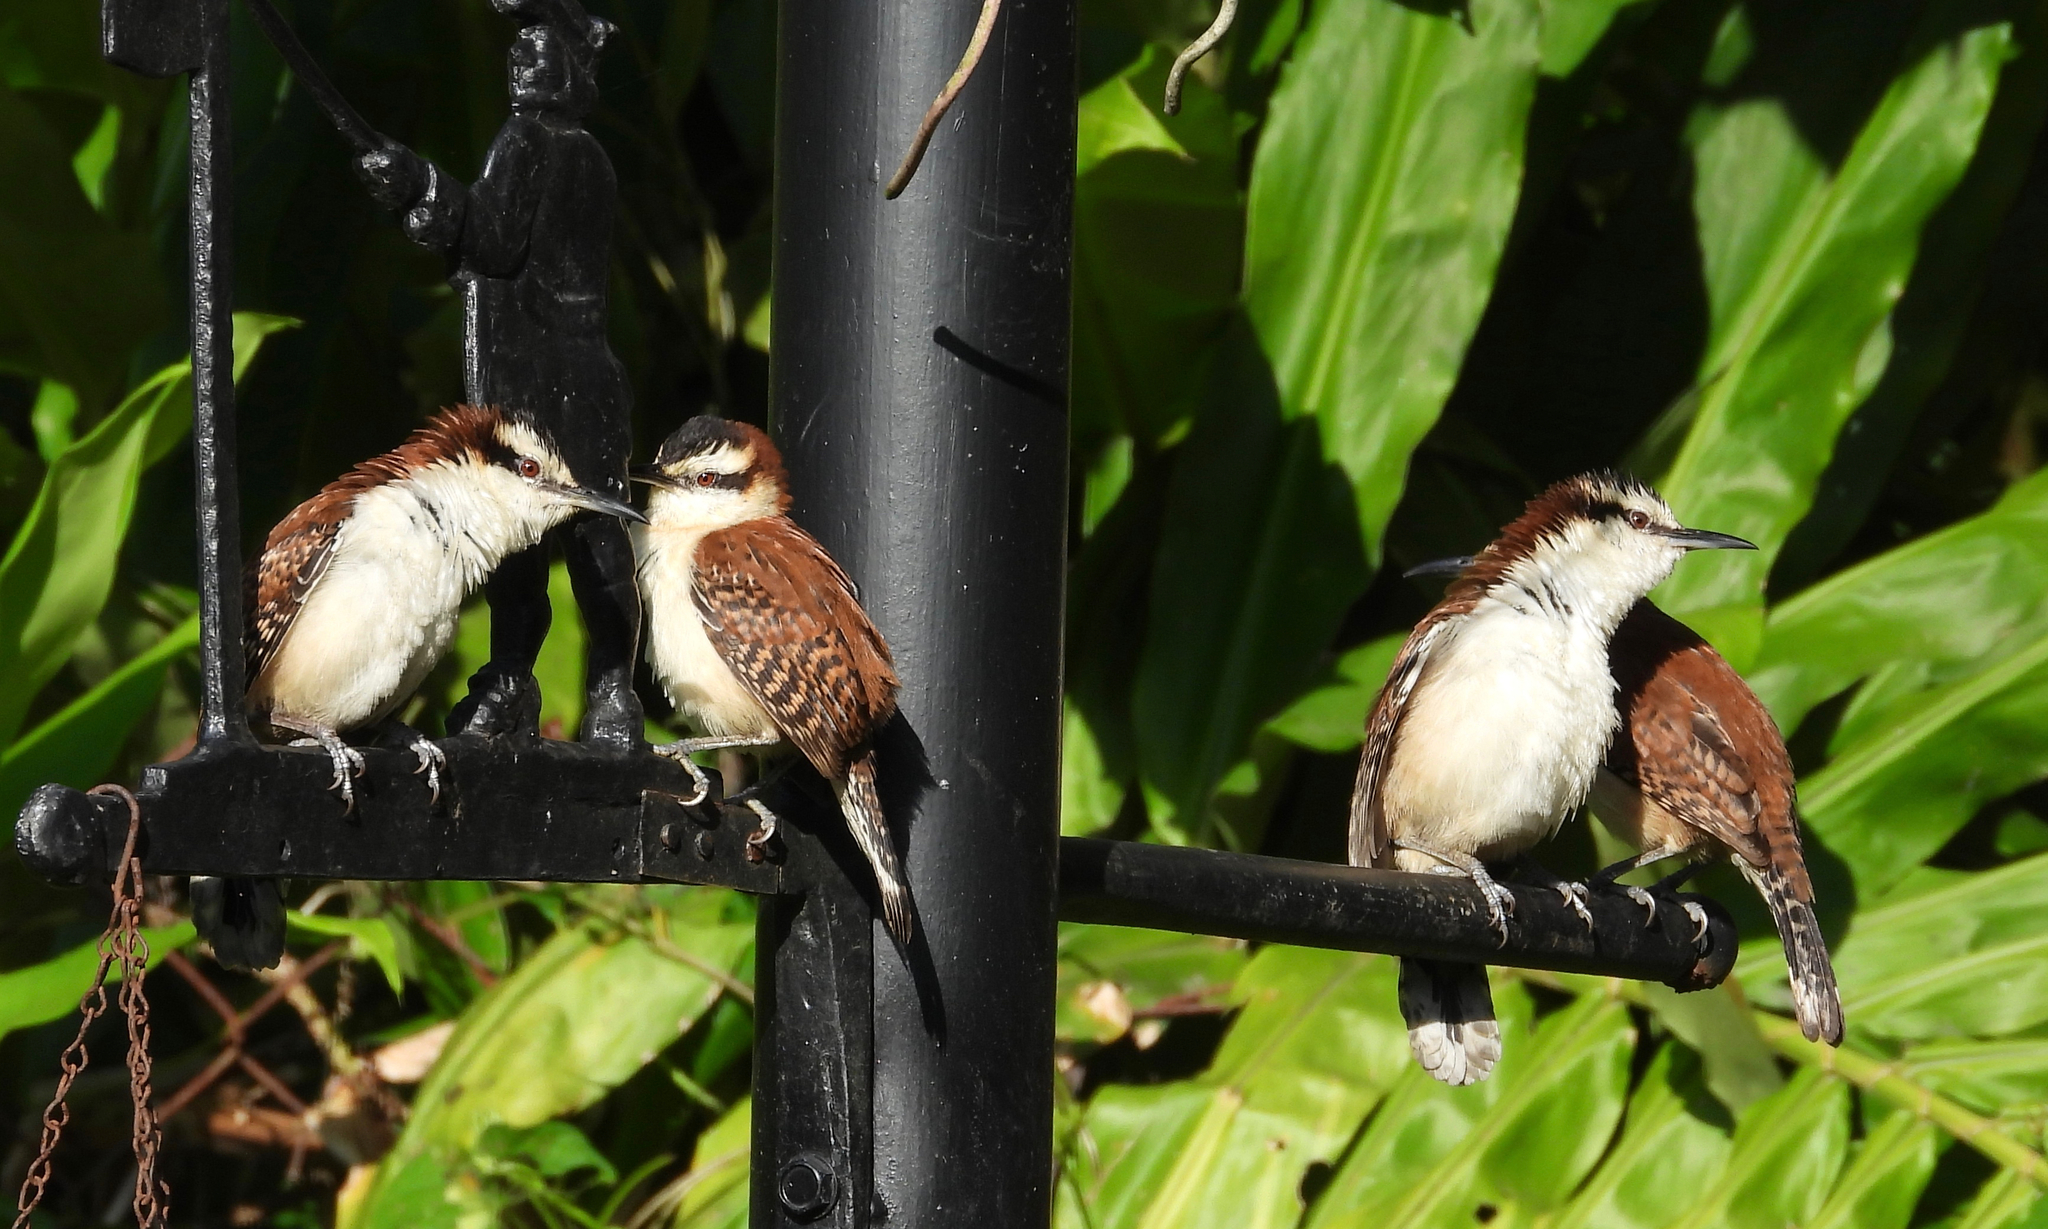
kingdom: Animalia
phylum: Chordata
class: Aves
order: Passeriformes
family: Troglodytidae
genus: Campylorhynchus
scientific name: Campylorhynchus rufinucha
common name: Rufous-naped wren
